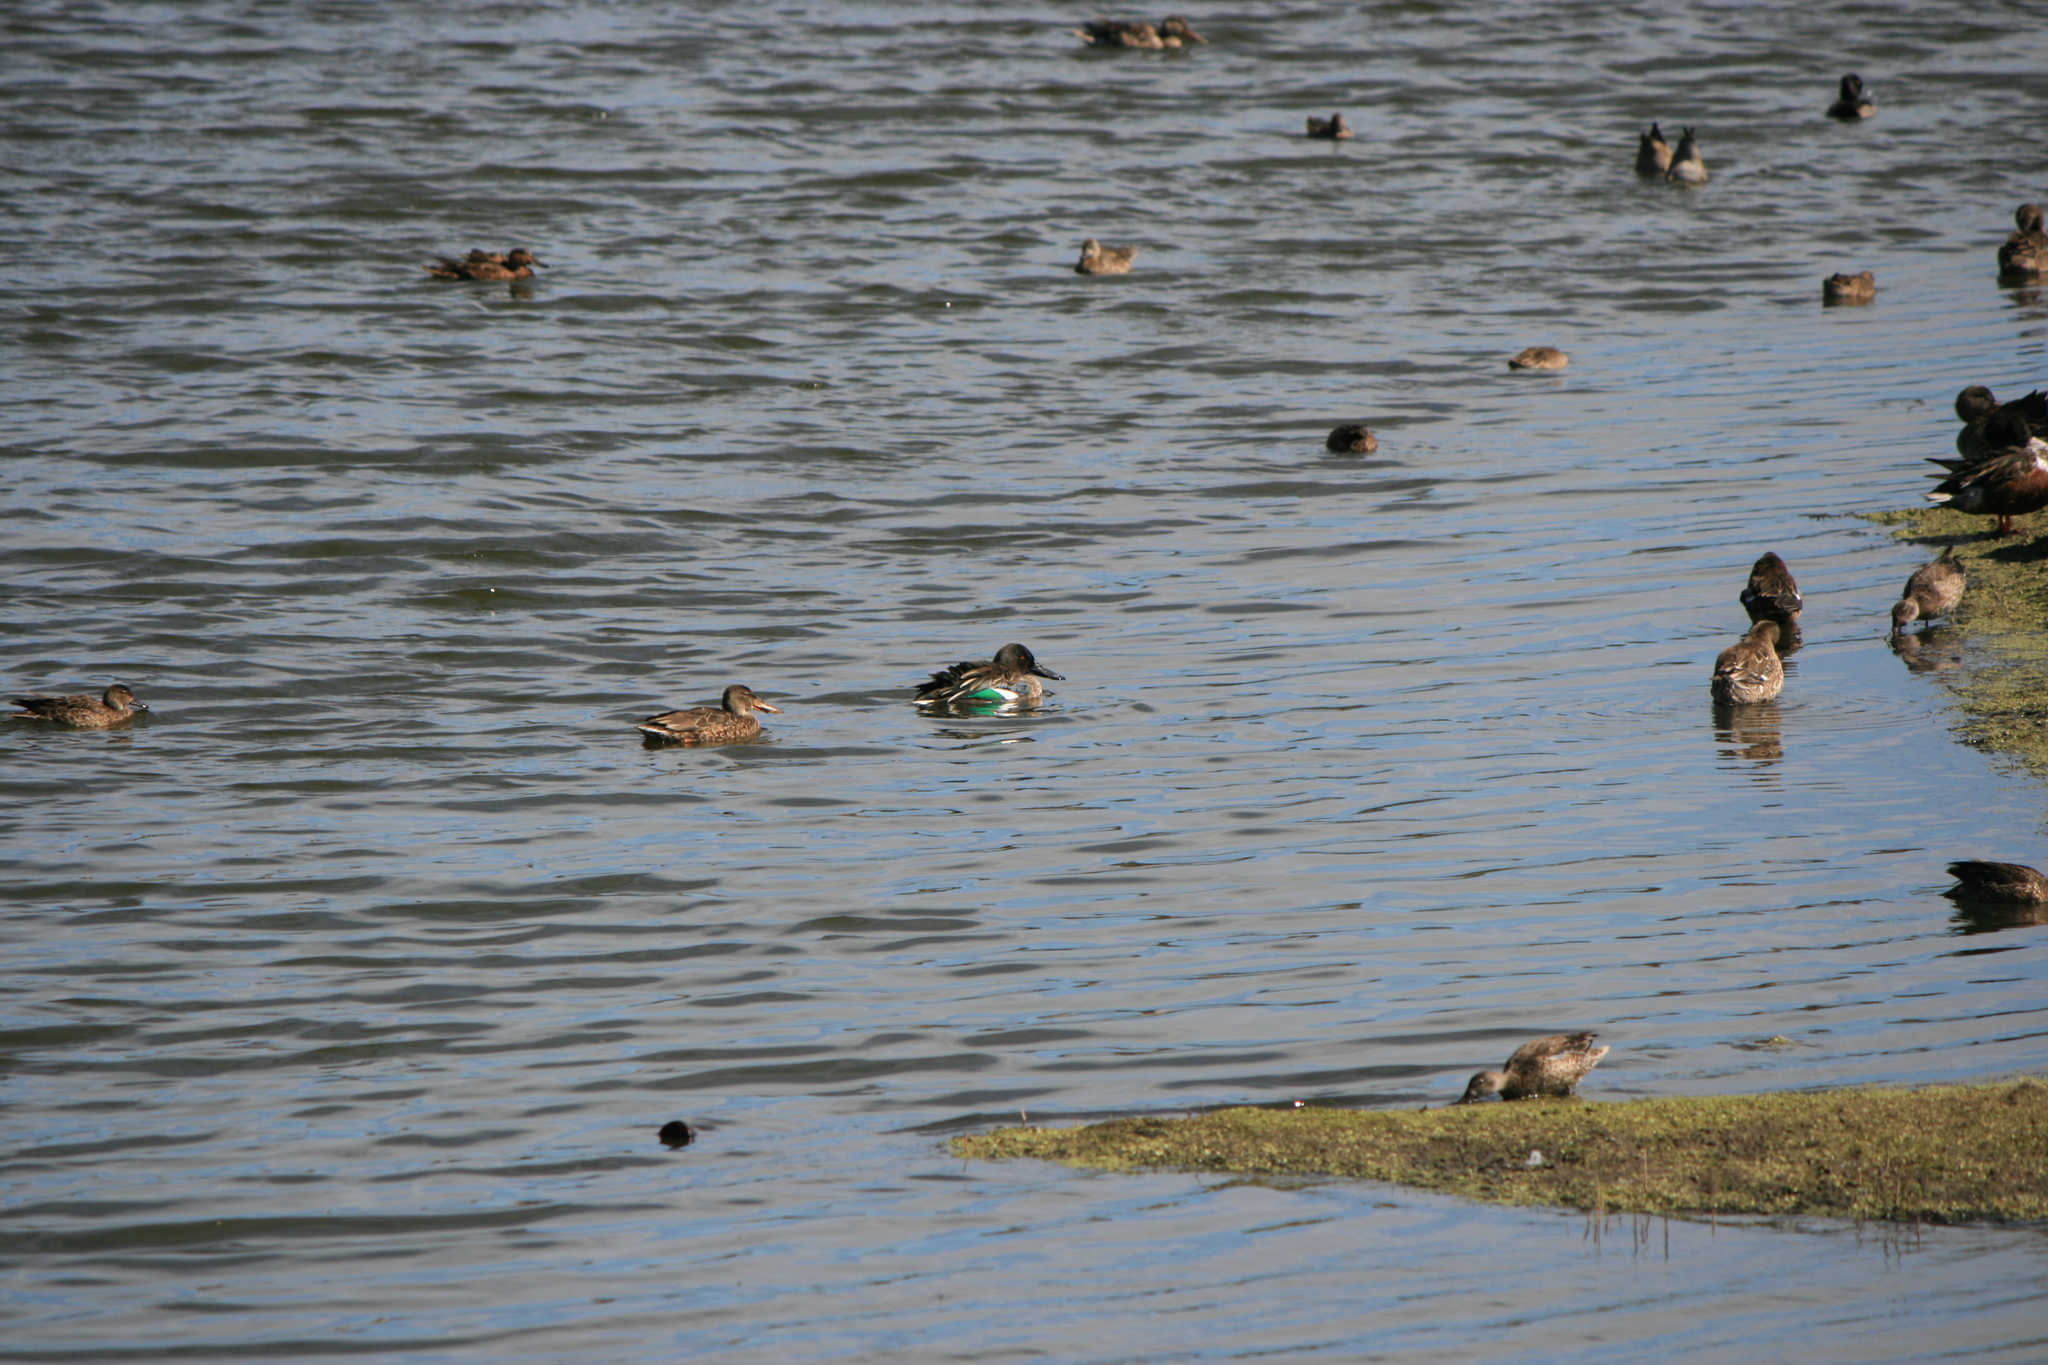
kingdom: Animalia
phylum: Chordata
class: Aves
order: Anseriformes
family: Anatidae
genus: Spatula
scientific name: Spatula clypeata
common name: Northern shoveler
